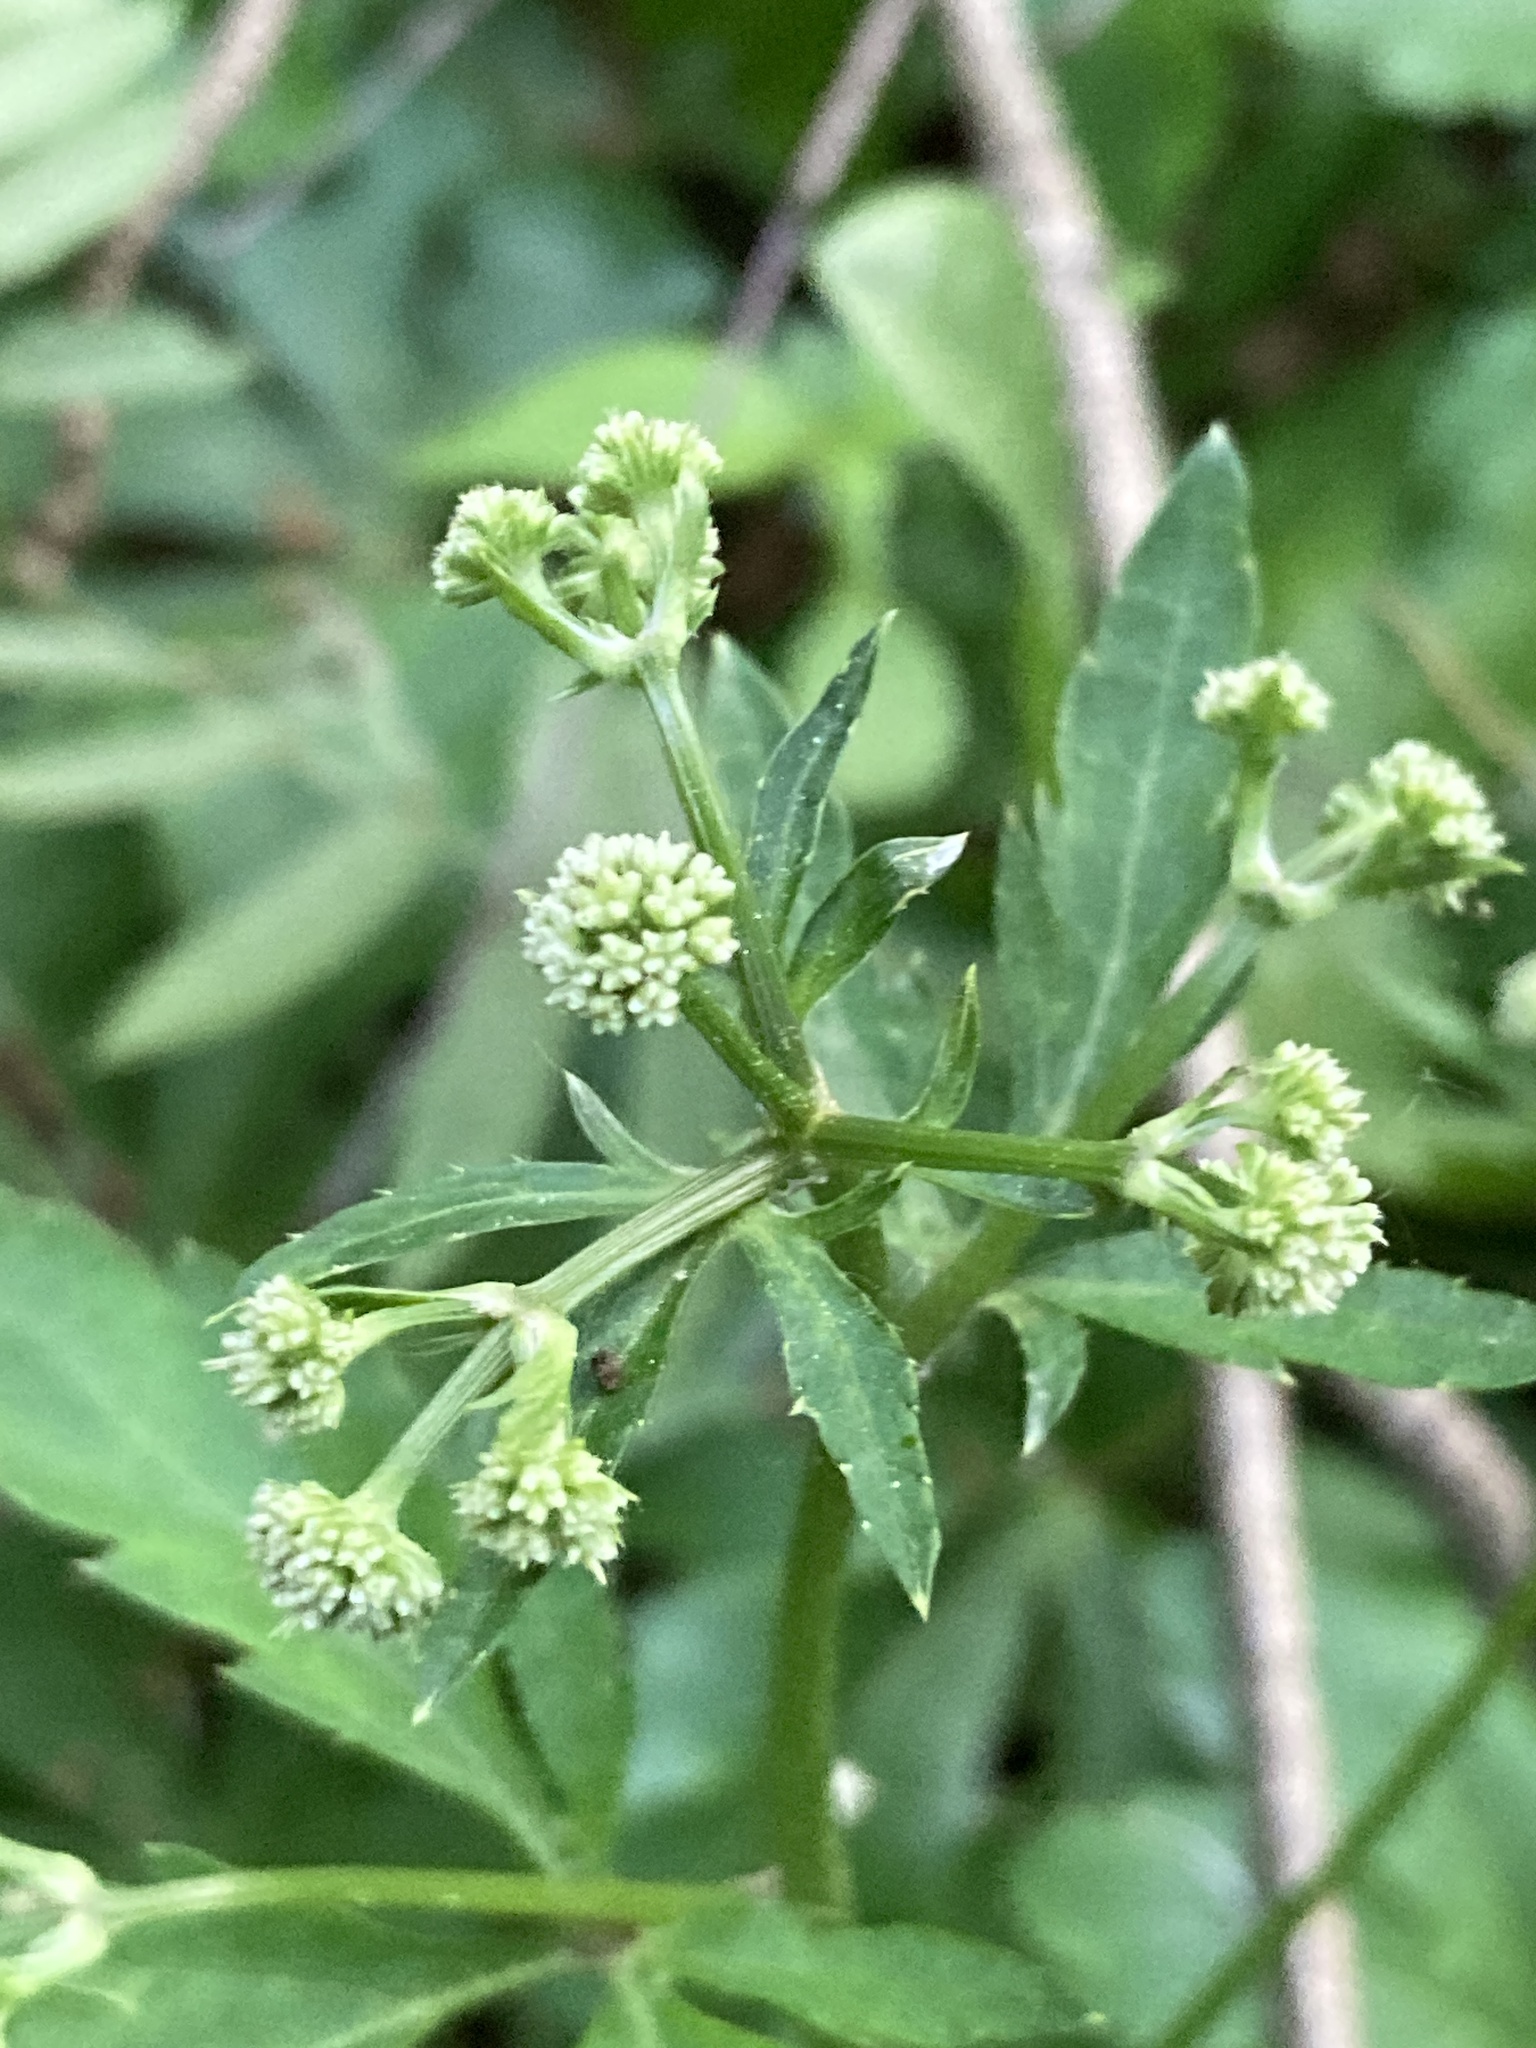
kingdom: Plantae
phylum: Tracheophyta
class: Magnoliopsida
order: Apiales
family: Apiaceae
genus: Sanicula
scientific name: Sanicula europaea
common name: Sanicle
